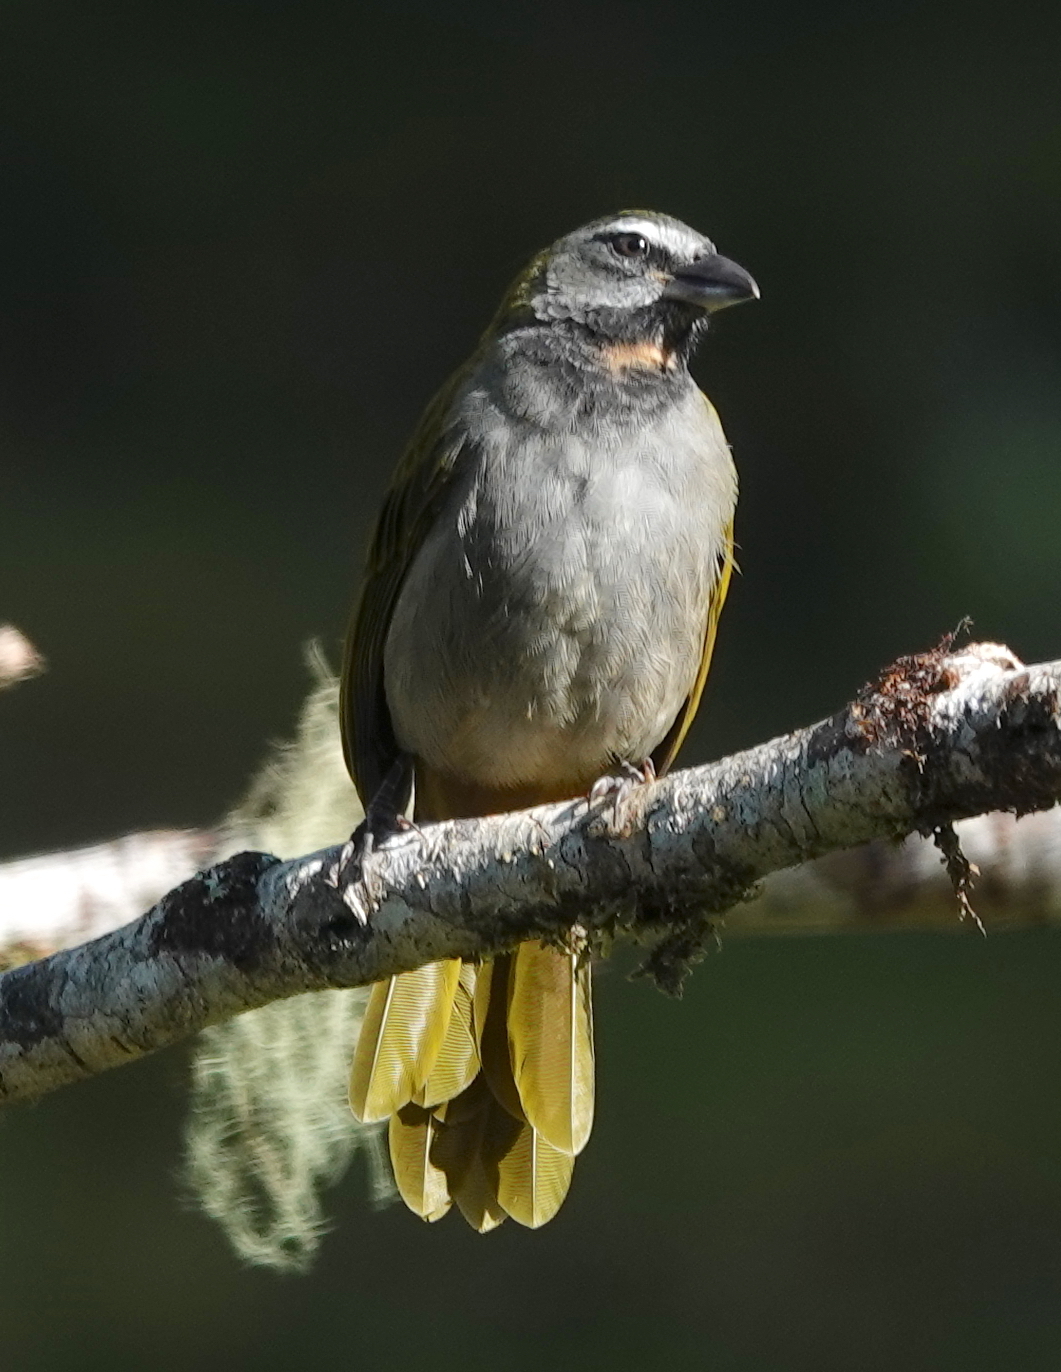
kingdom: Animalia
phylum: Chordata
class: Aves
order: Passeriformes
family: Thraupidae
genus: Saltator
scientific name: Saltator maximus
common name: Buff-throated saltator
